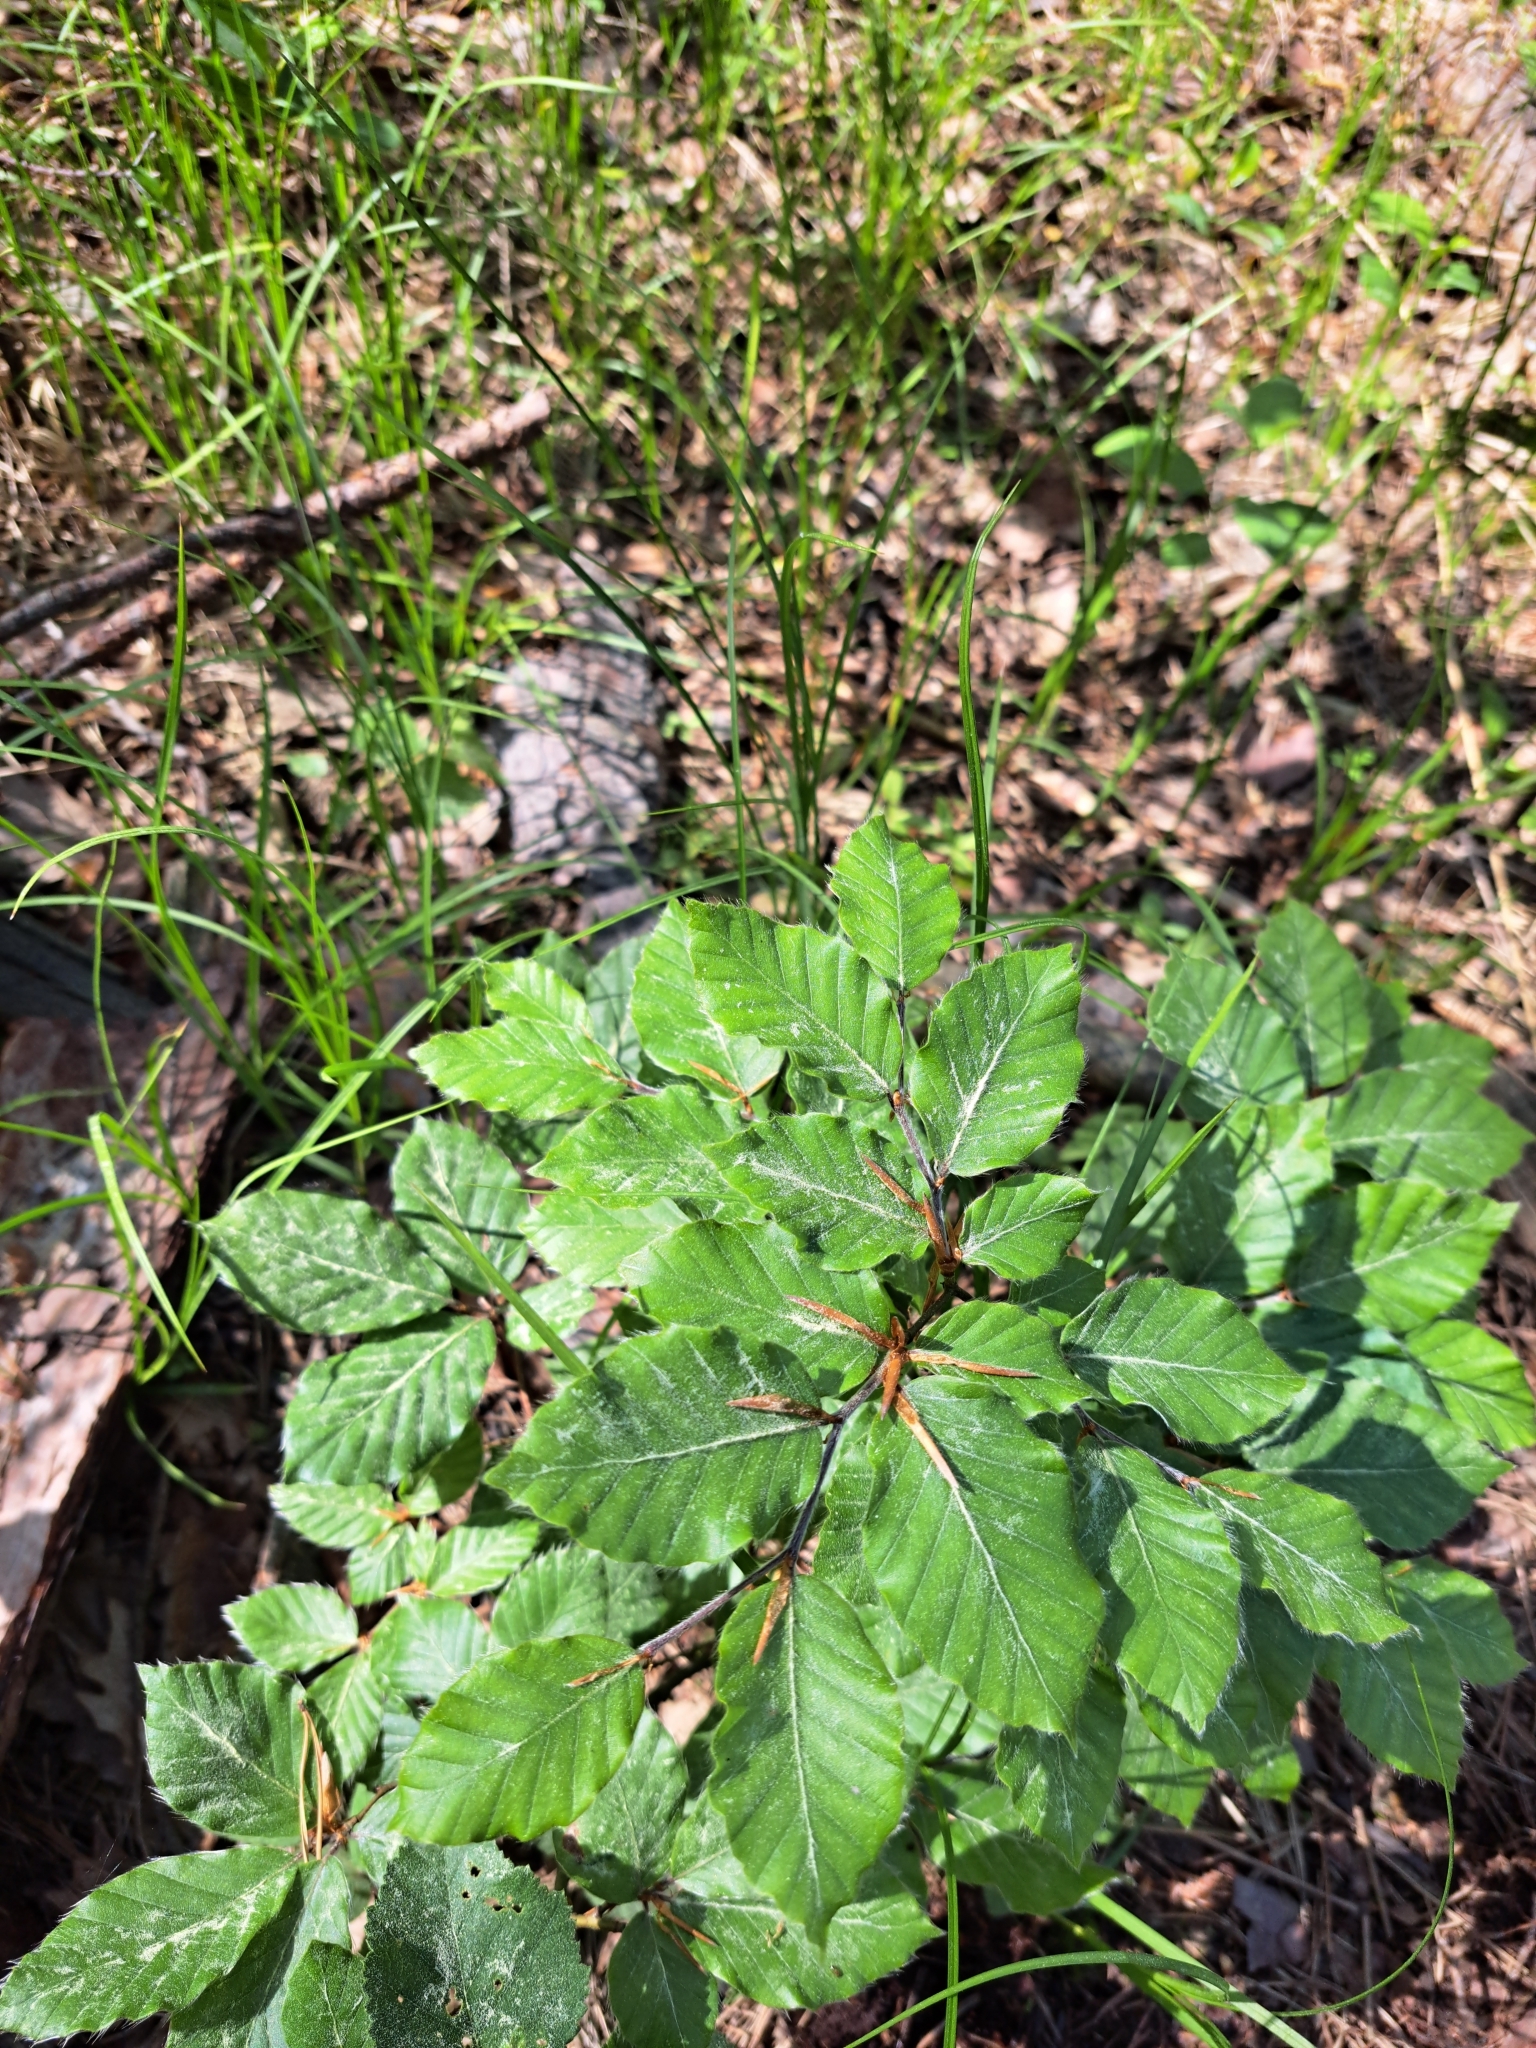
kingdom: Plantae
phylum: Tracheophyta
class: Magnoliopsida
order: Fagales
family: Fagaceae
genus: Fagus
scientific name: Fagus sylvatica
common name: Beech
